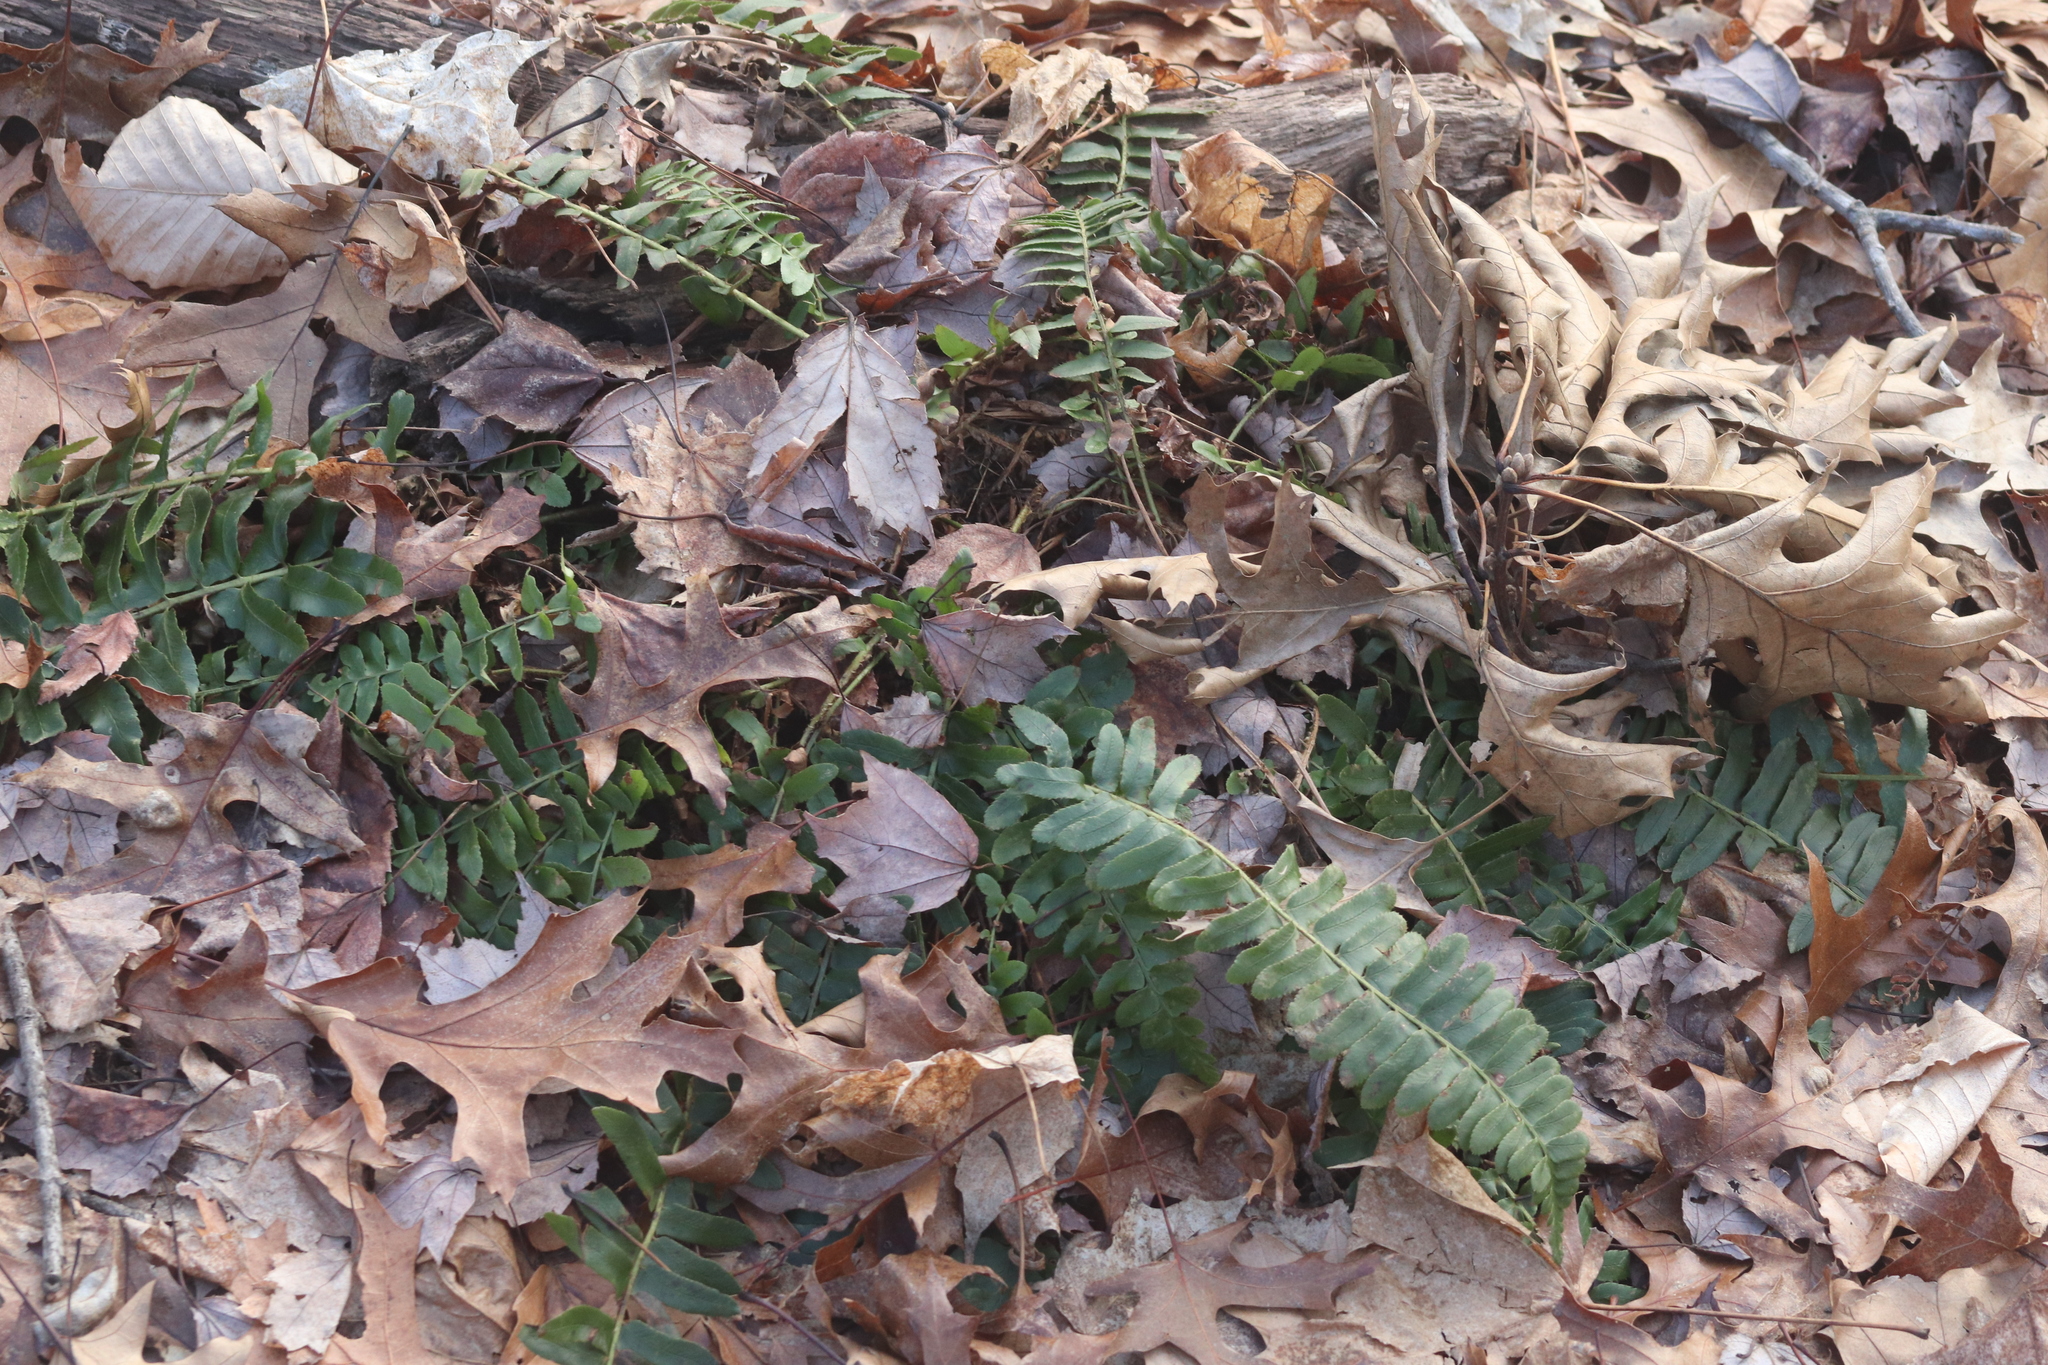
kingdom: Plantae
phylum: Tracheophyta
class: Polypodiopsida
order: Polypodiales
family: Dryopteridaceae
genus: Polystichum
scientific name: Polystichum acrostichoides
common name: Christmas fern
